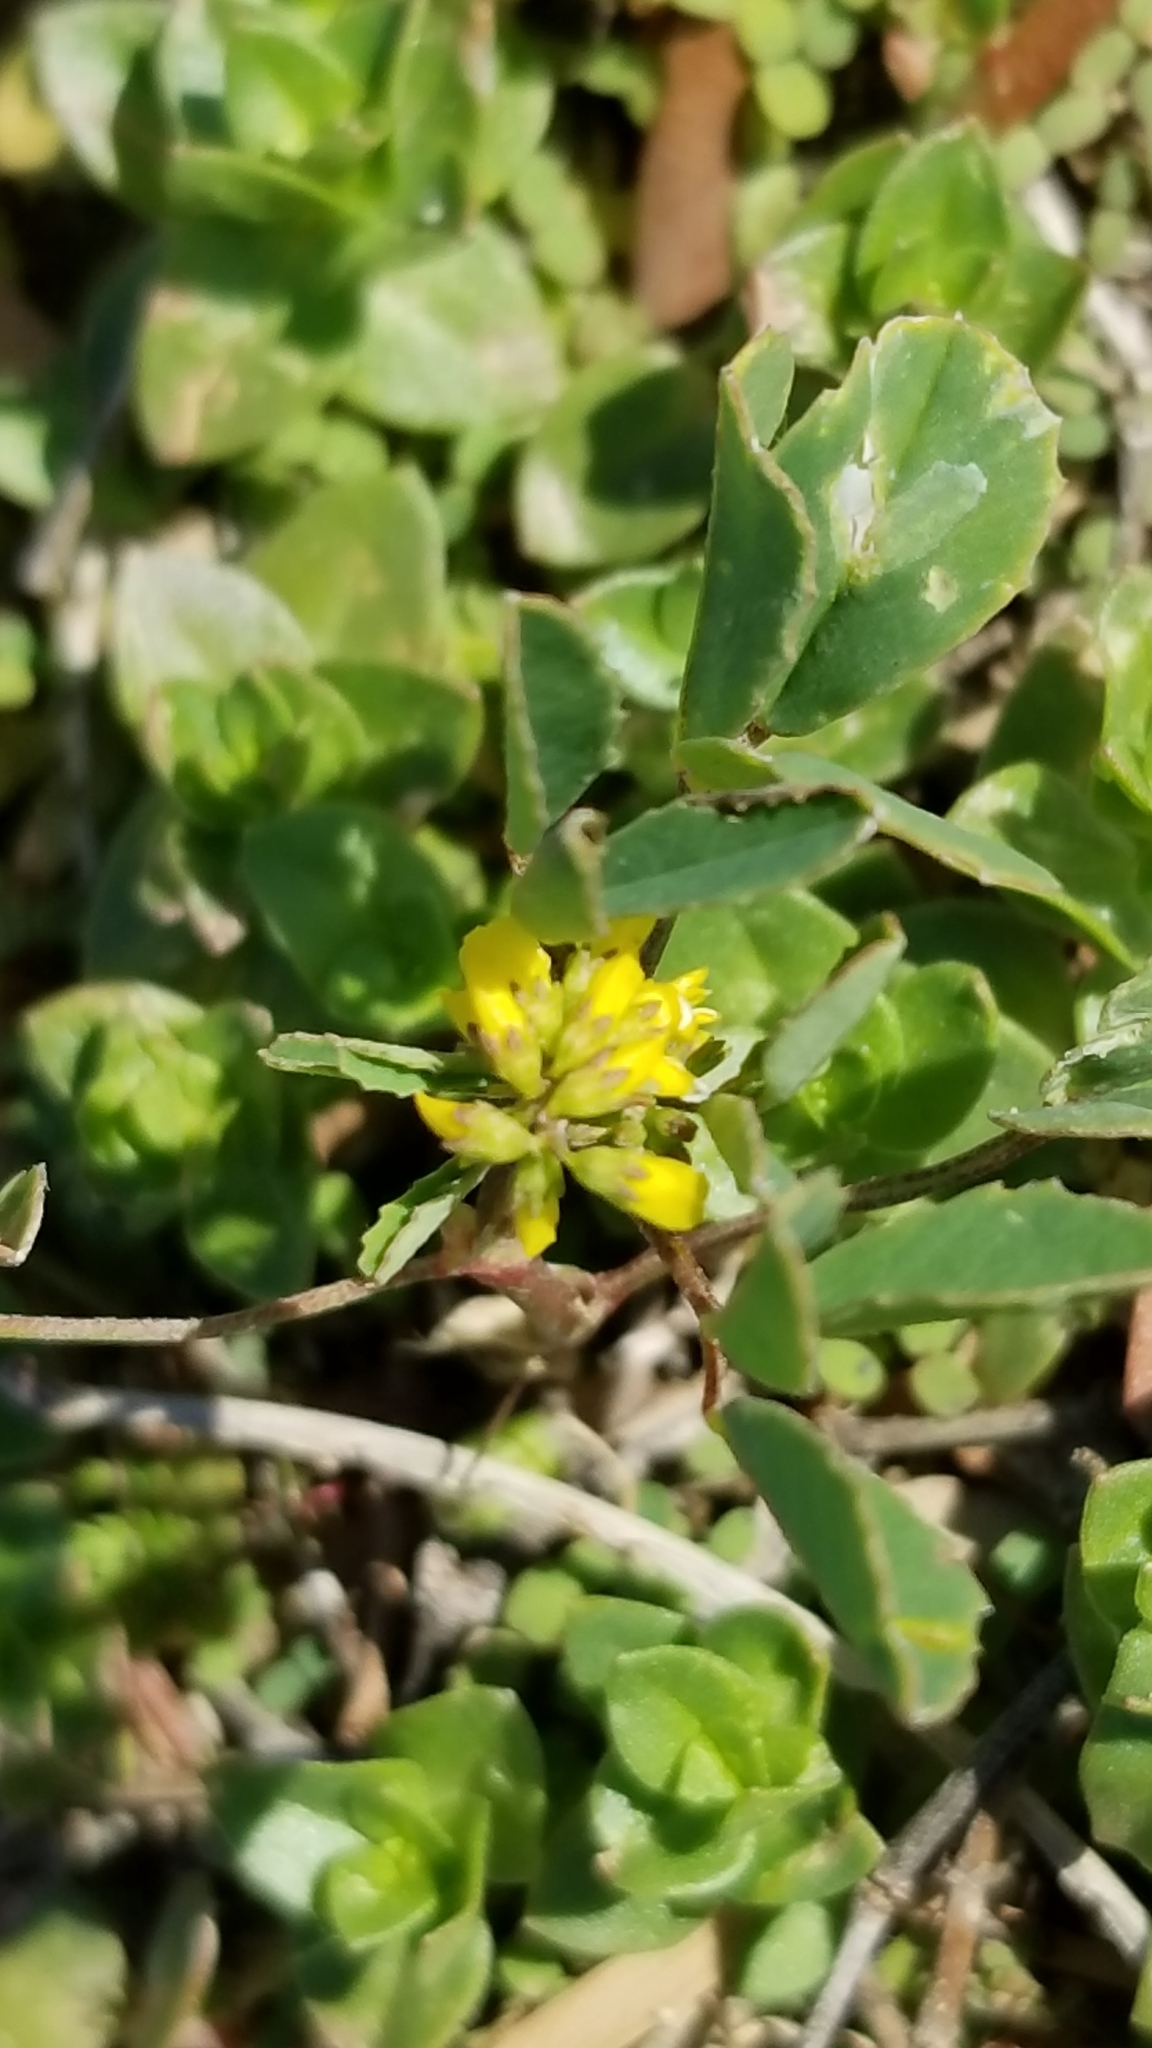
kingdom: Plantae
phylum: Tracheophyta
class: Magnoliopsida
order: Fabales
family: Fabaceae
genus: Melilotus
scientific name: Melilotus indicus
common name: Small melilot
